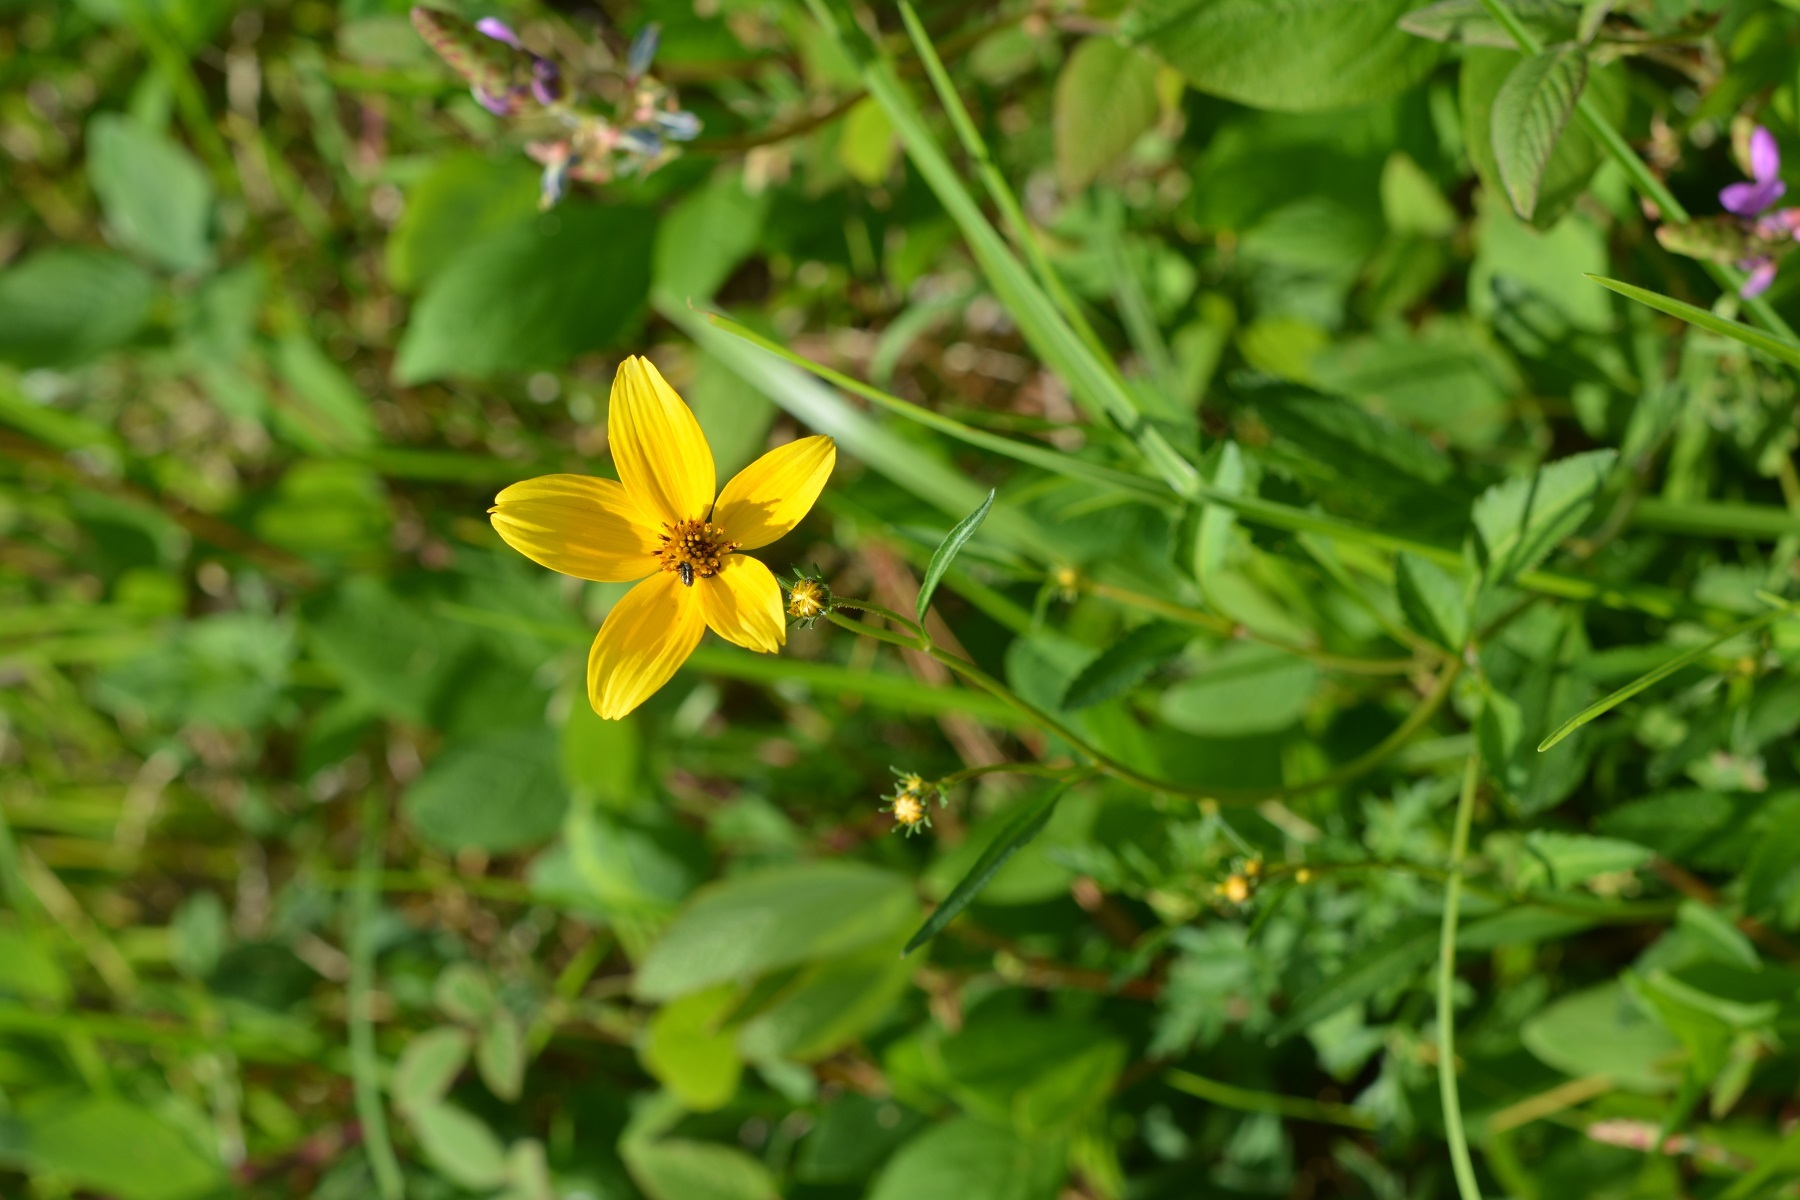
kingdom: Plantae
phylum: Tracheophyta
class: Magnoliopsida
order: Asterales
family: Asteraceae
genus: Bidens
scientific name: Bidens triplinervia
